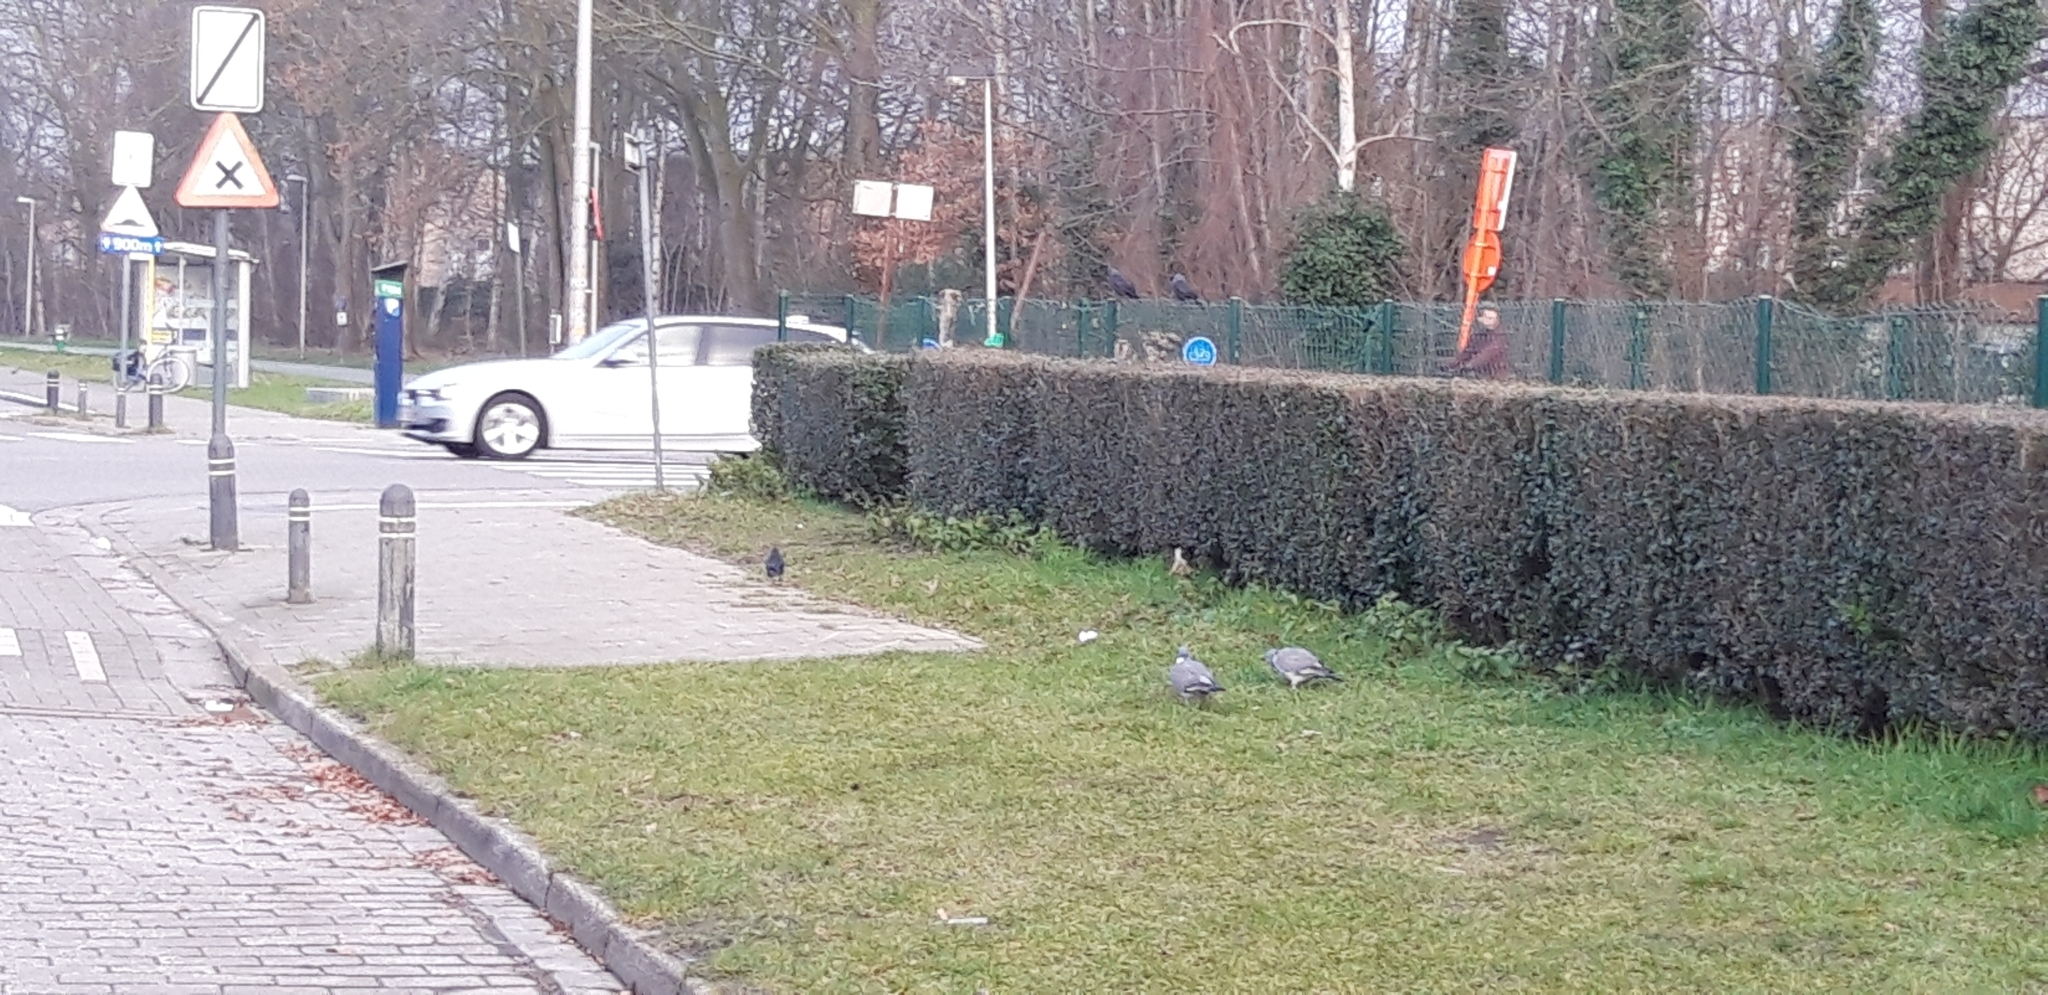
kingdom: Animalia
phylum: Chordata
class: Aves
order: Columbiformes
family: Columbidae
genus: Columba
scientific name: Columba palumbus
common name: Common wood pigeon
